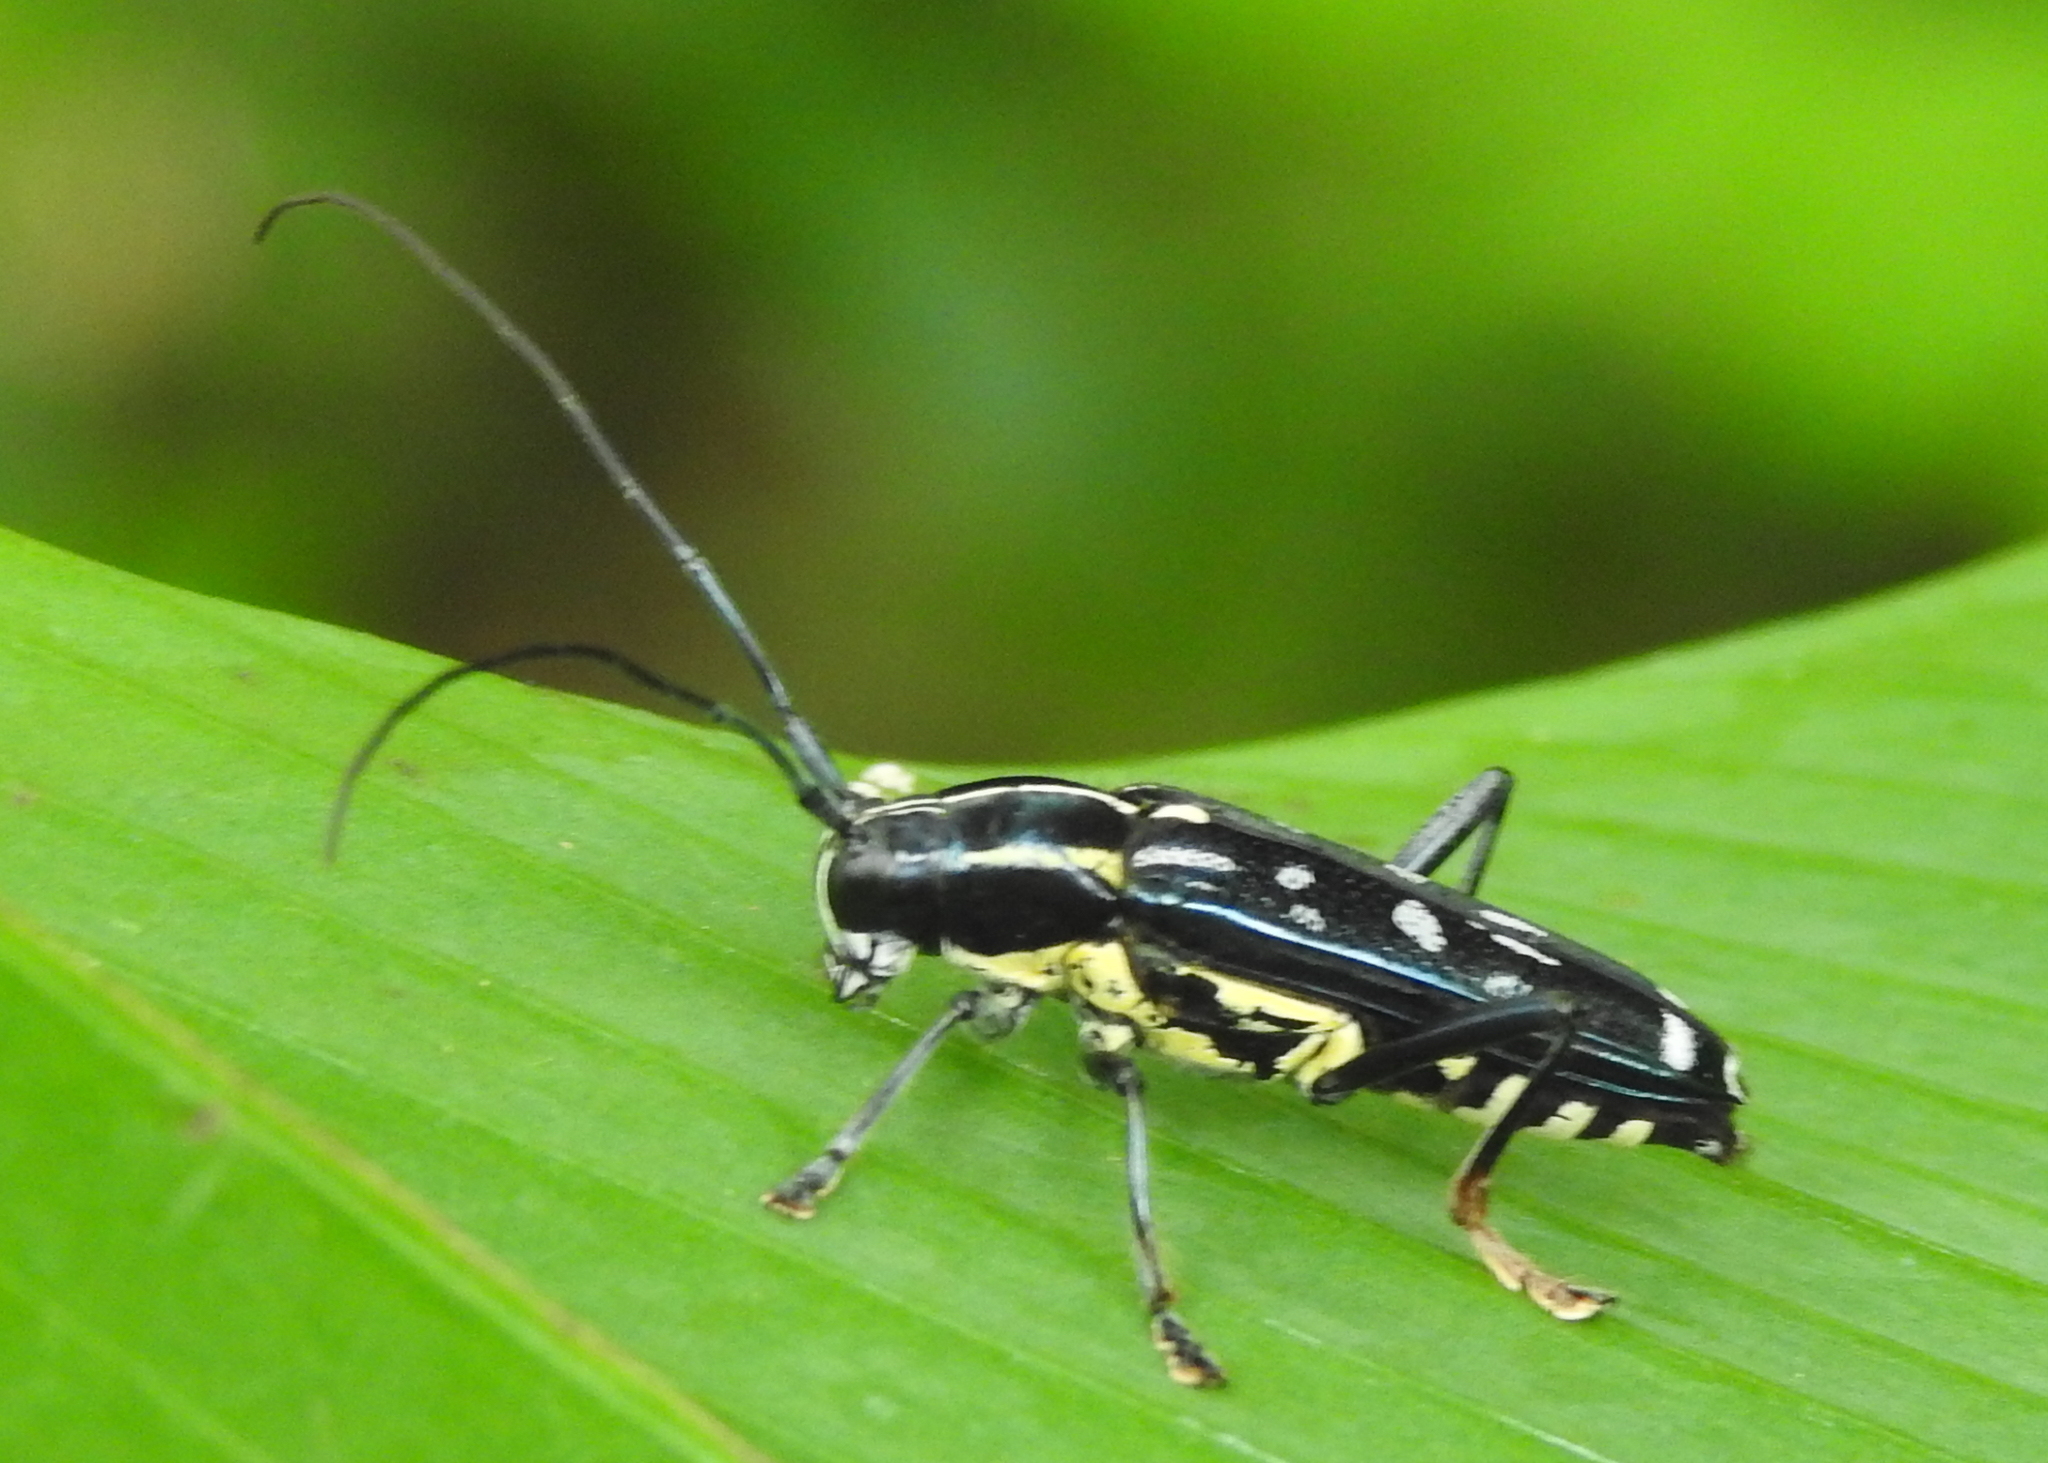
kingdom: Animalia
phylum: Arthropoda
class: Insecta
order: Coleoptera
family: Cerambycidae
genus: Glenea
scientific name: Glenea elegans
